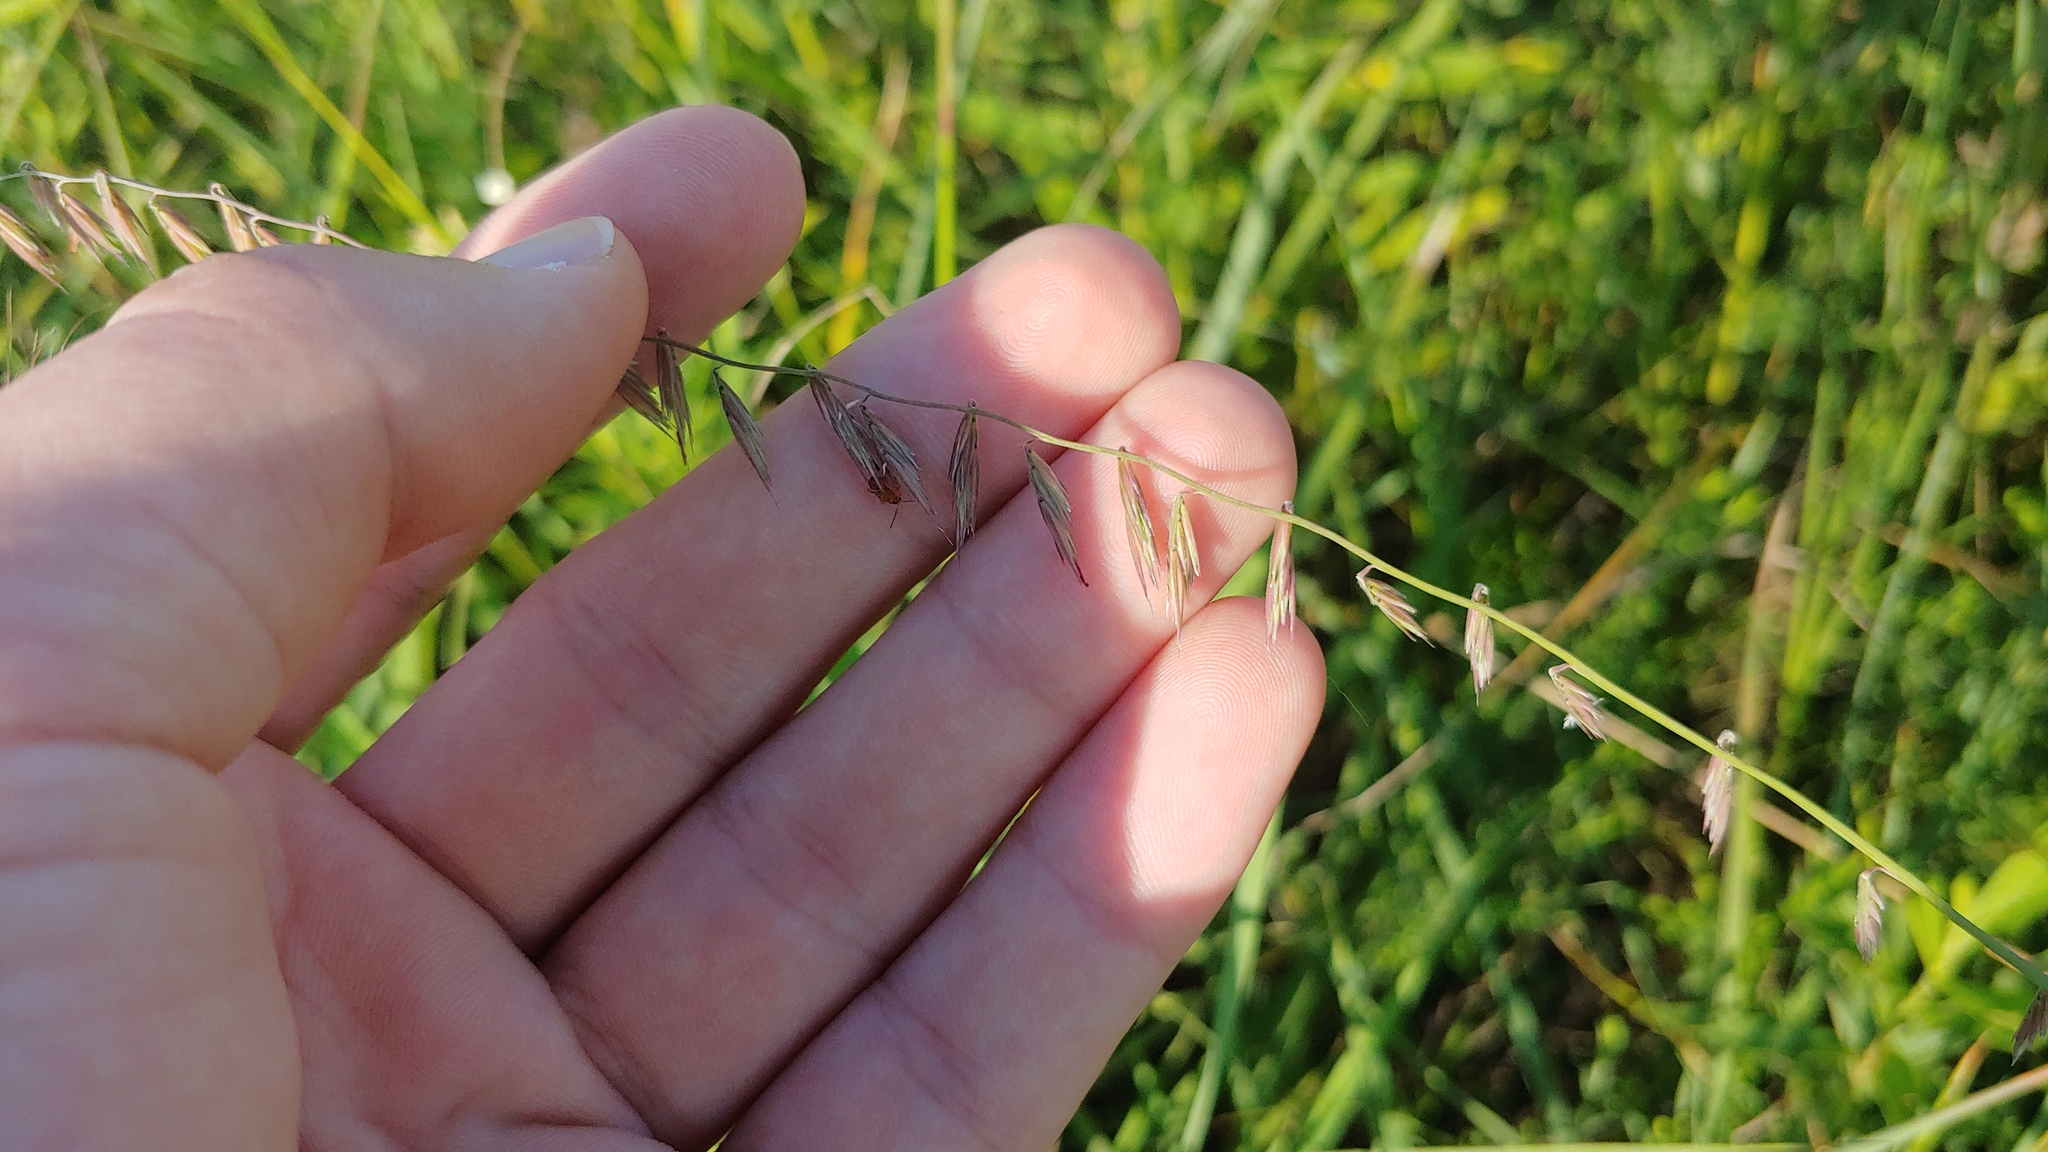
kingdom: Plantae
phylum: Tracheophyta
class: Liliopsida
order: Poales
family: Poaceae
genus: Bouteloua
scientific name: Bouteloua curtipendula
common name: Side-oats grama
